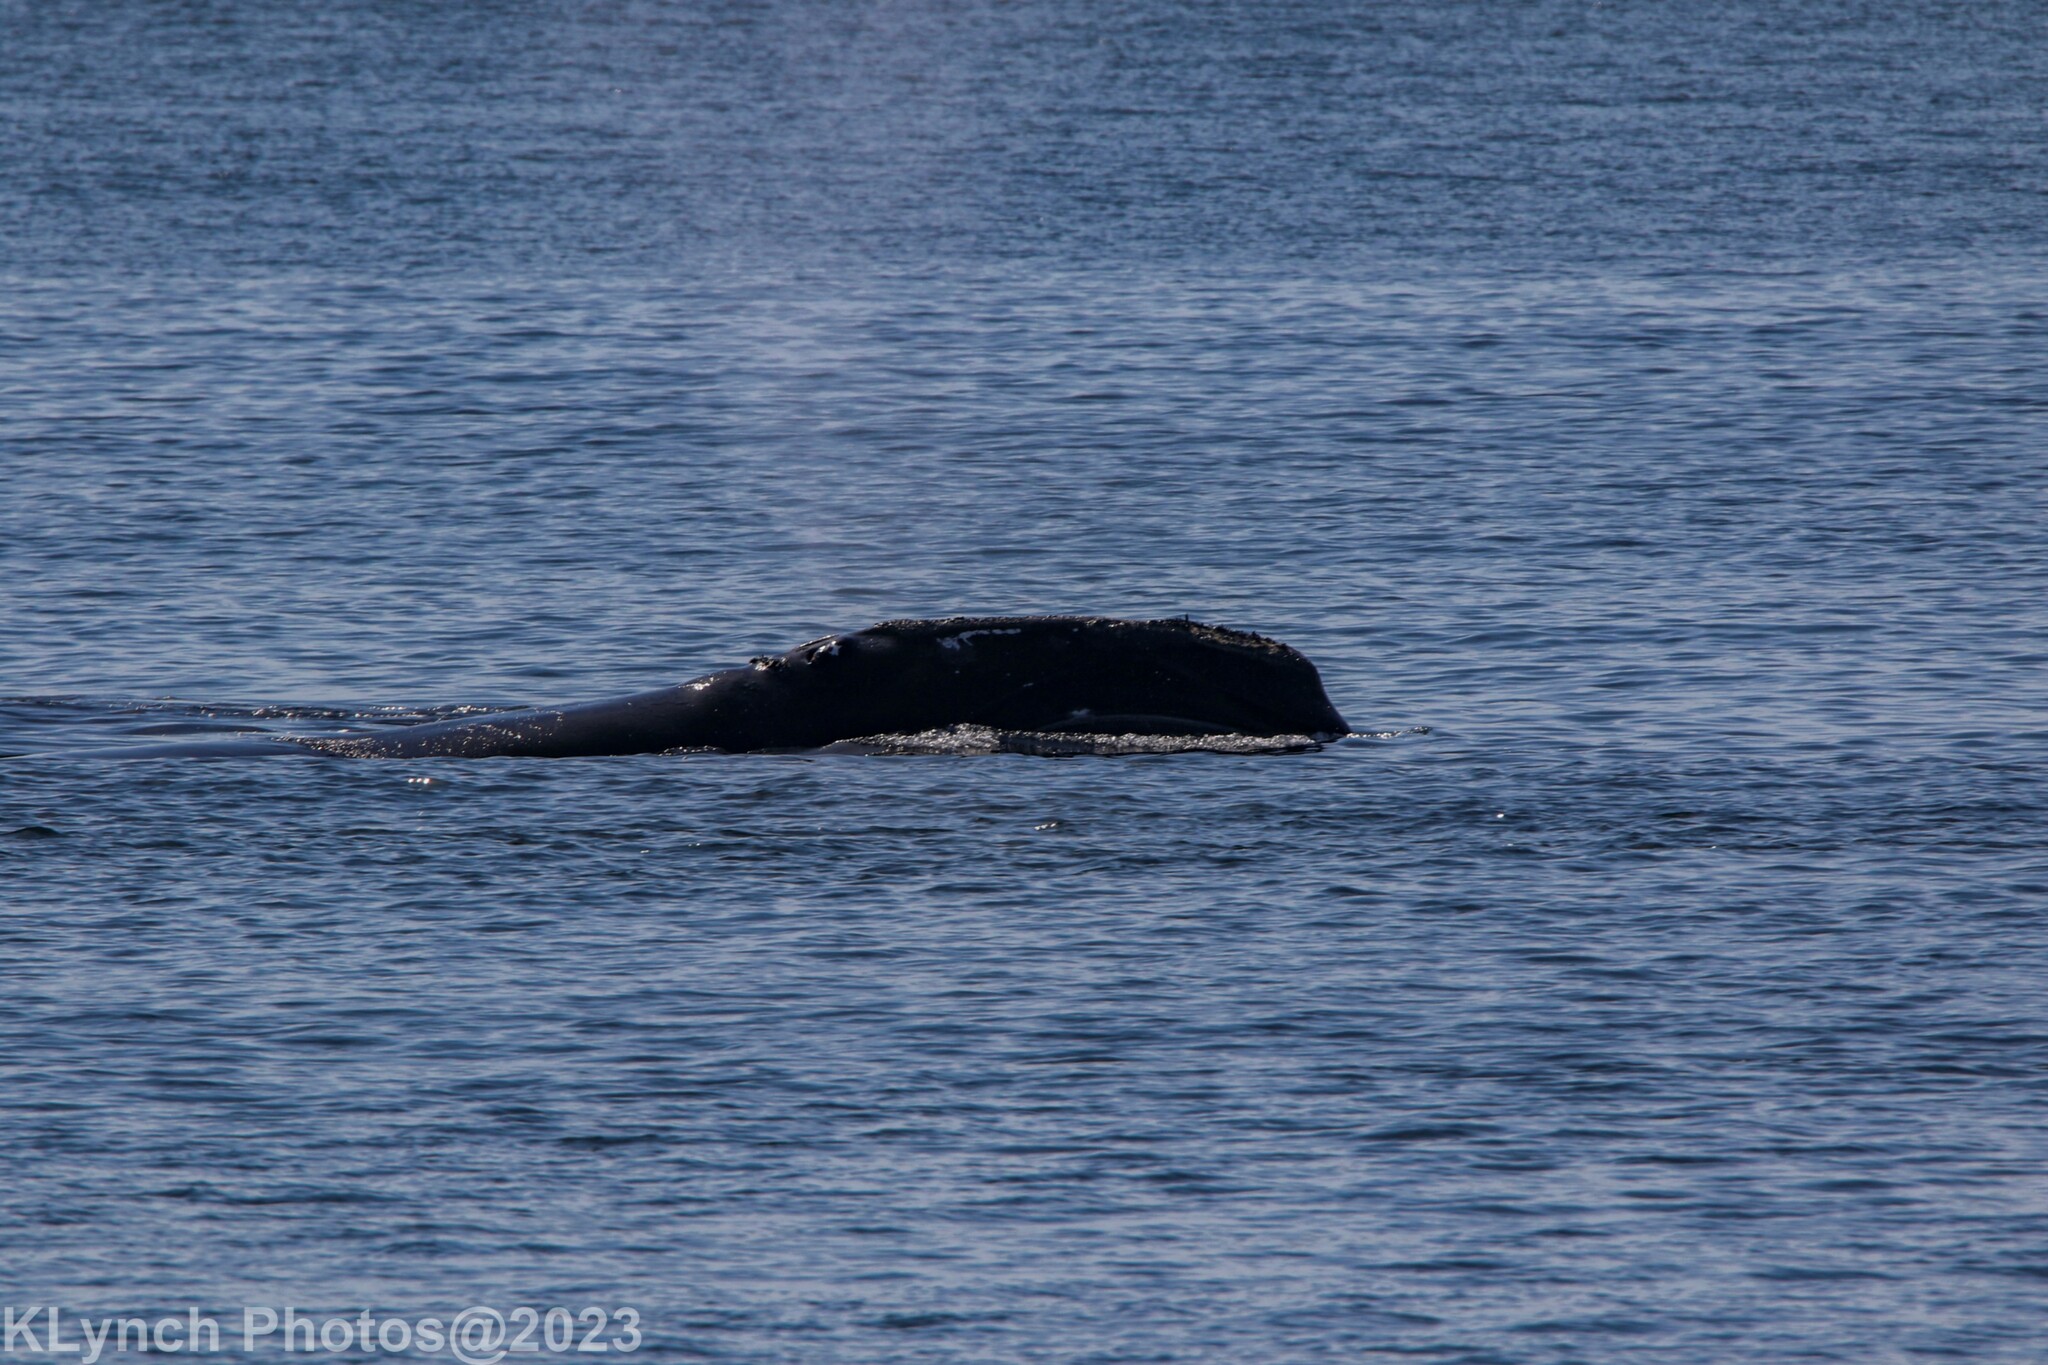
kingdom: Animalia
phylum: Chordata
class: Mammalia
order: Cetacea
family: Balaenidae
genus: Eubalaena
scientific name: Eubalaena glacialis
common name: North atlantic right whale
